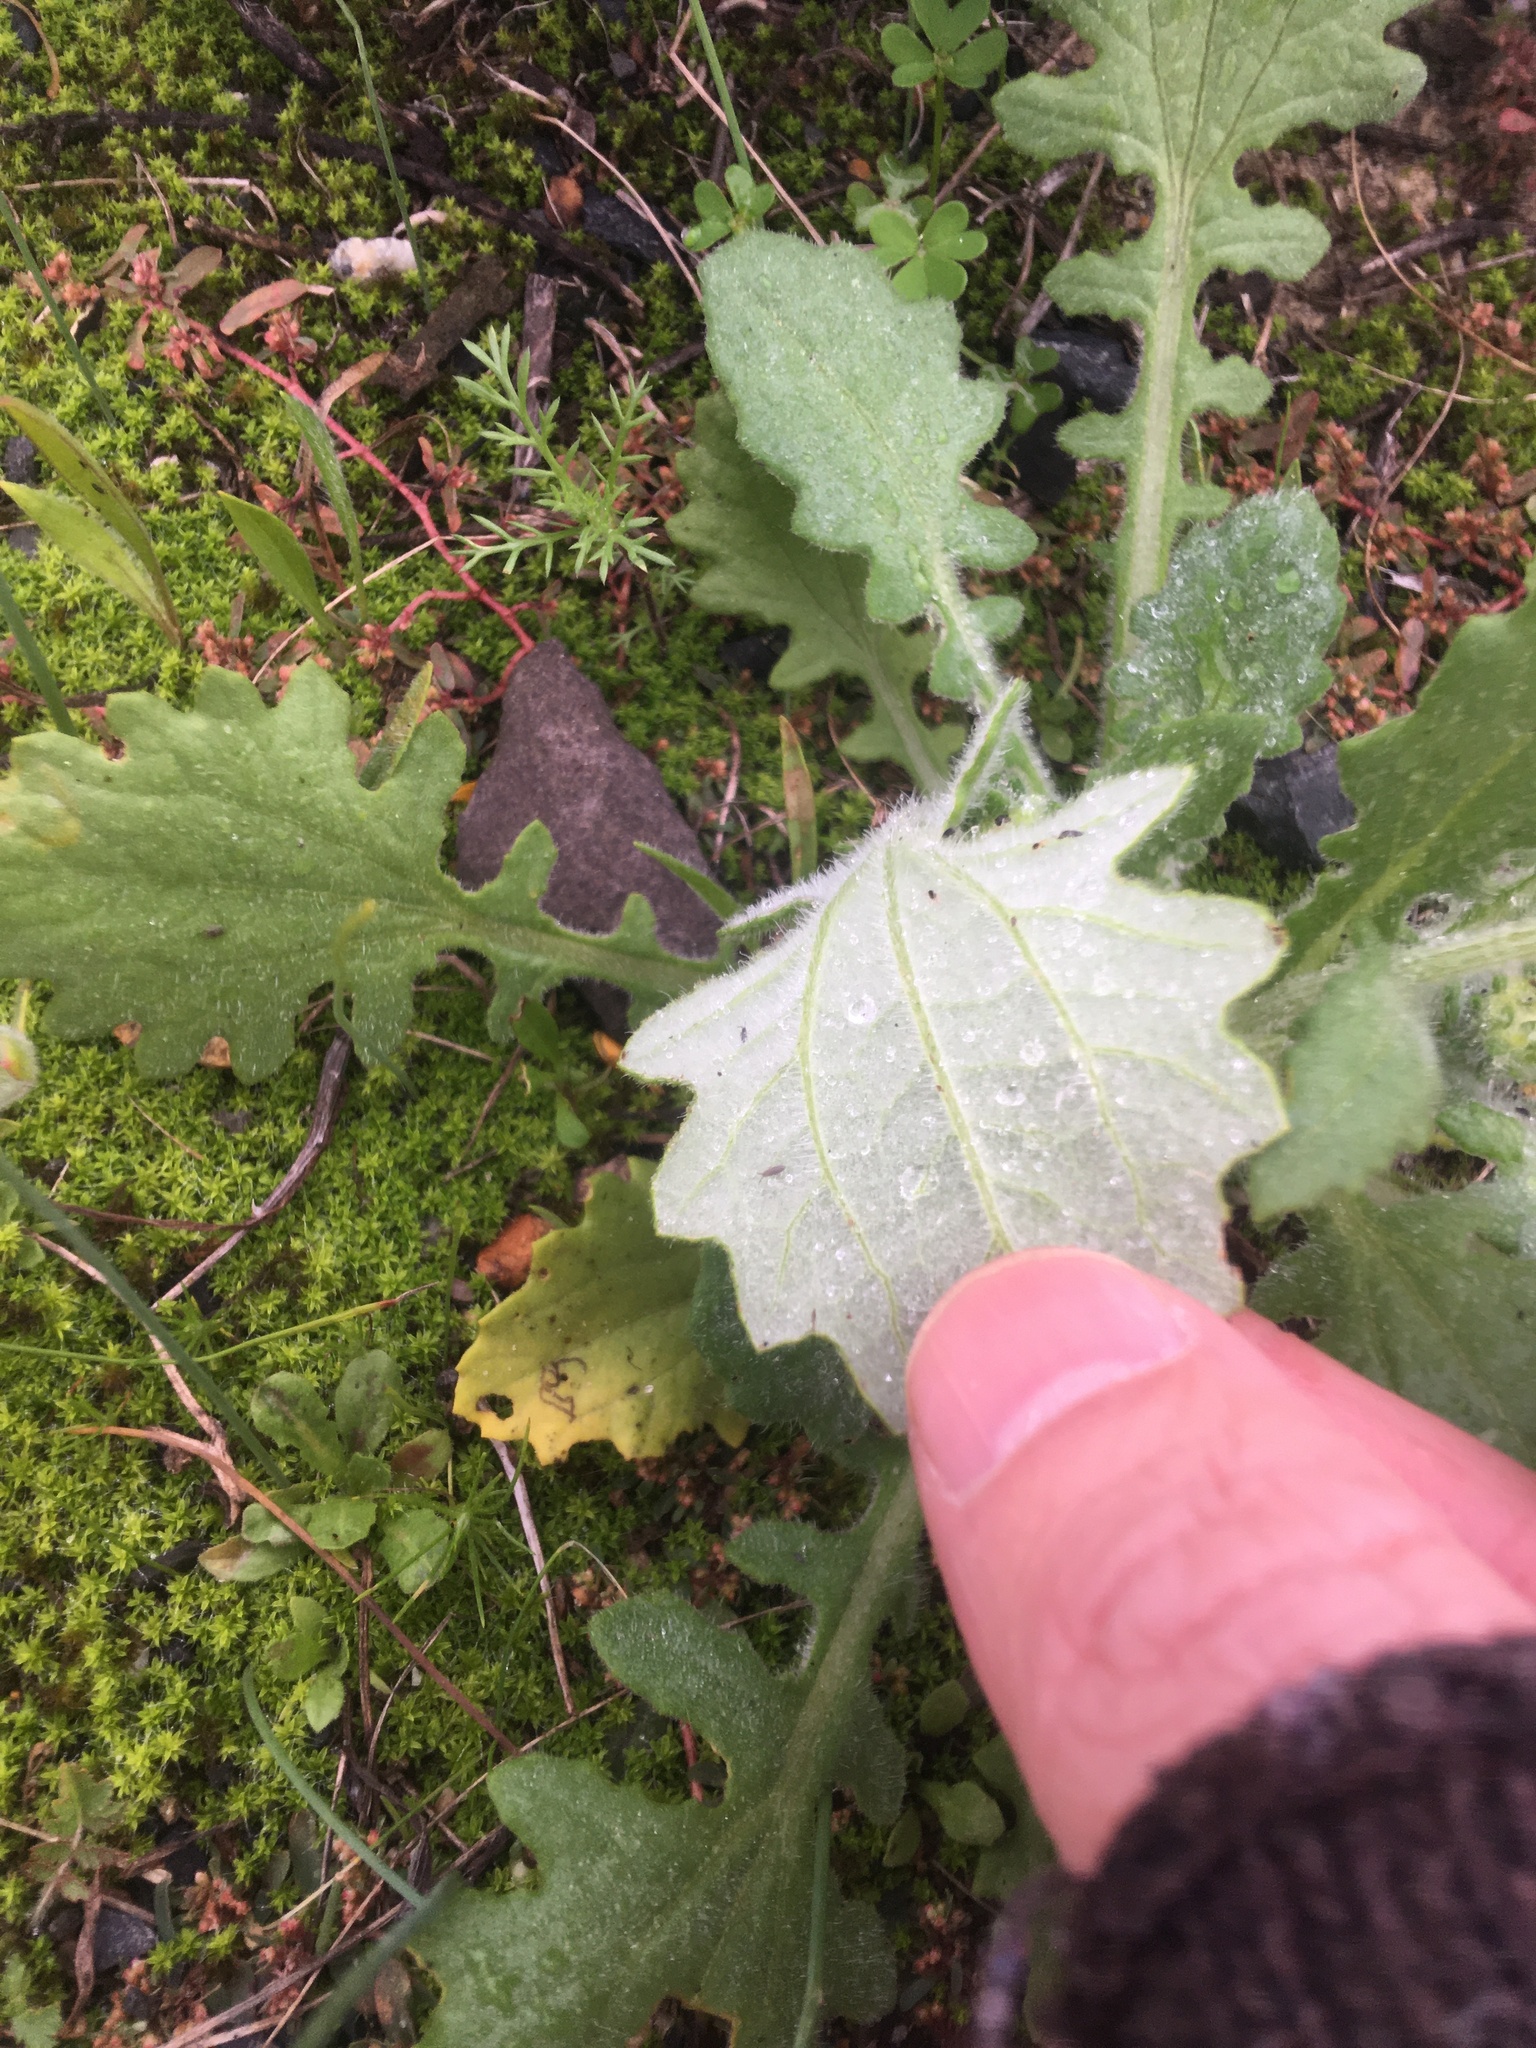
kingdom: Plantae
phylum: Tracheophyta
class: Magnoliopsida
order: Asterales
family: Asteraceae
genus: Arctotis
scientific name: Arctotis hirsuta
